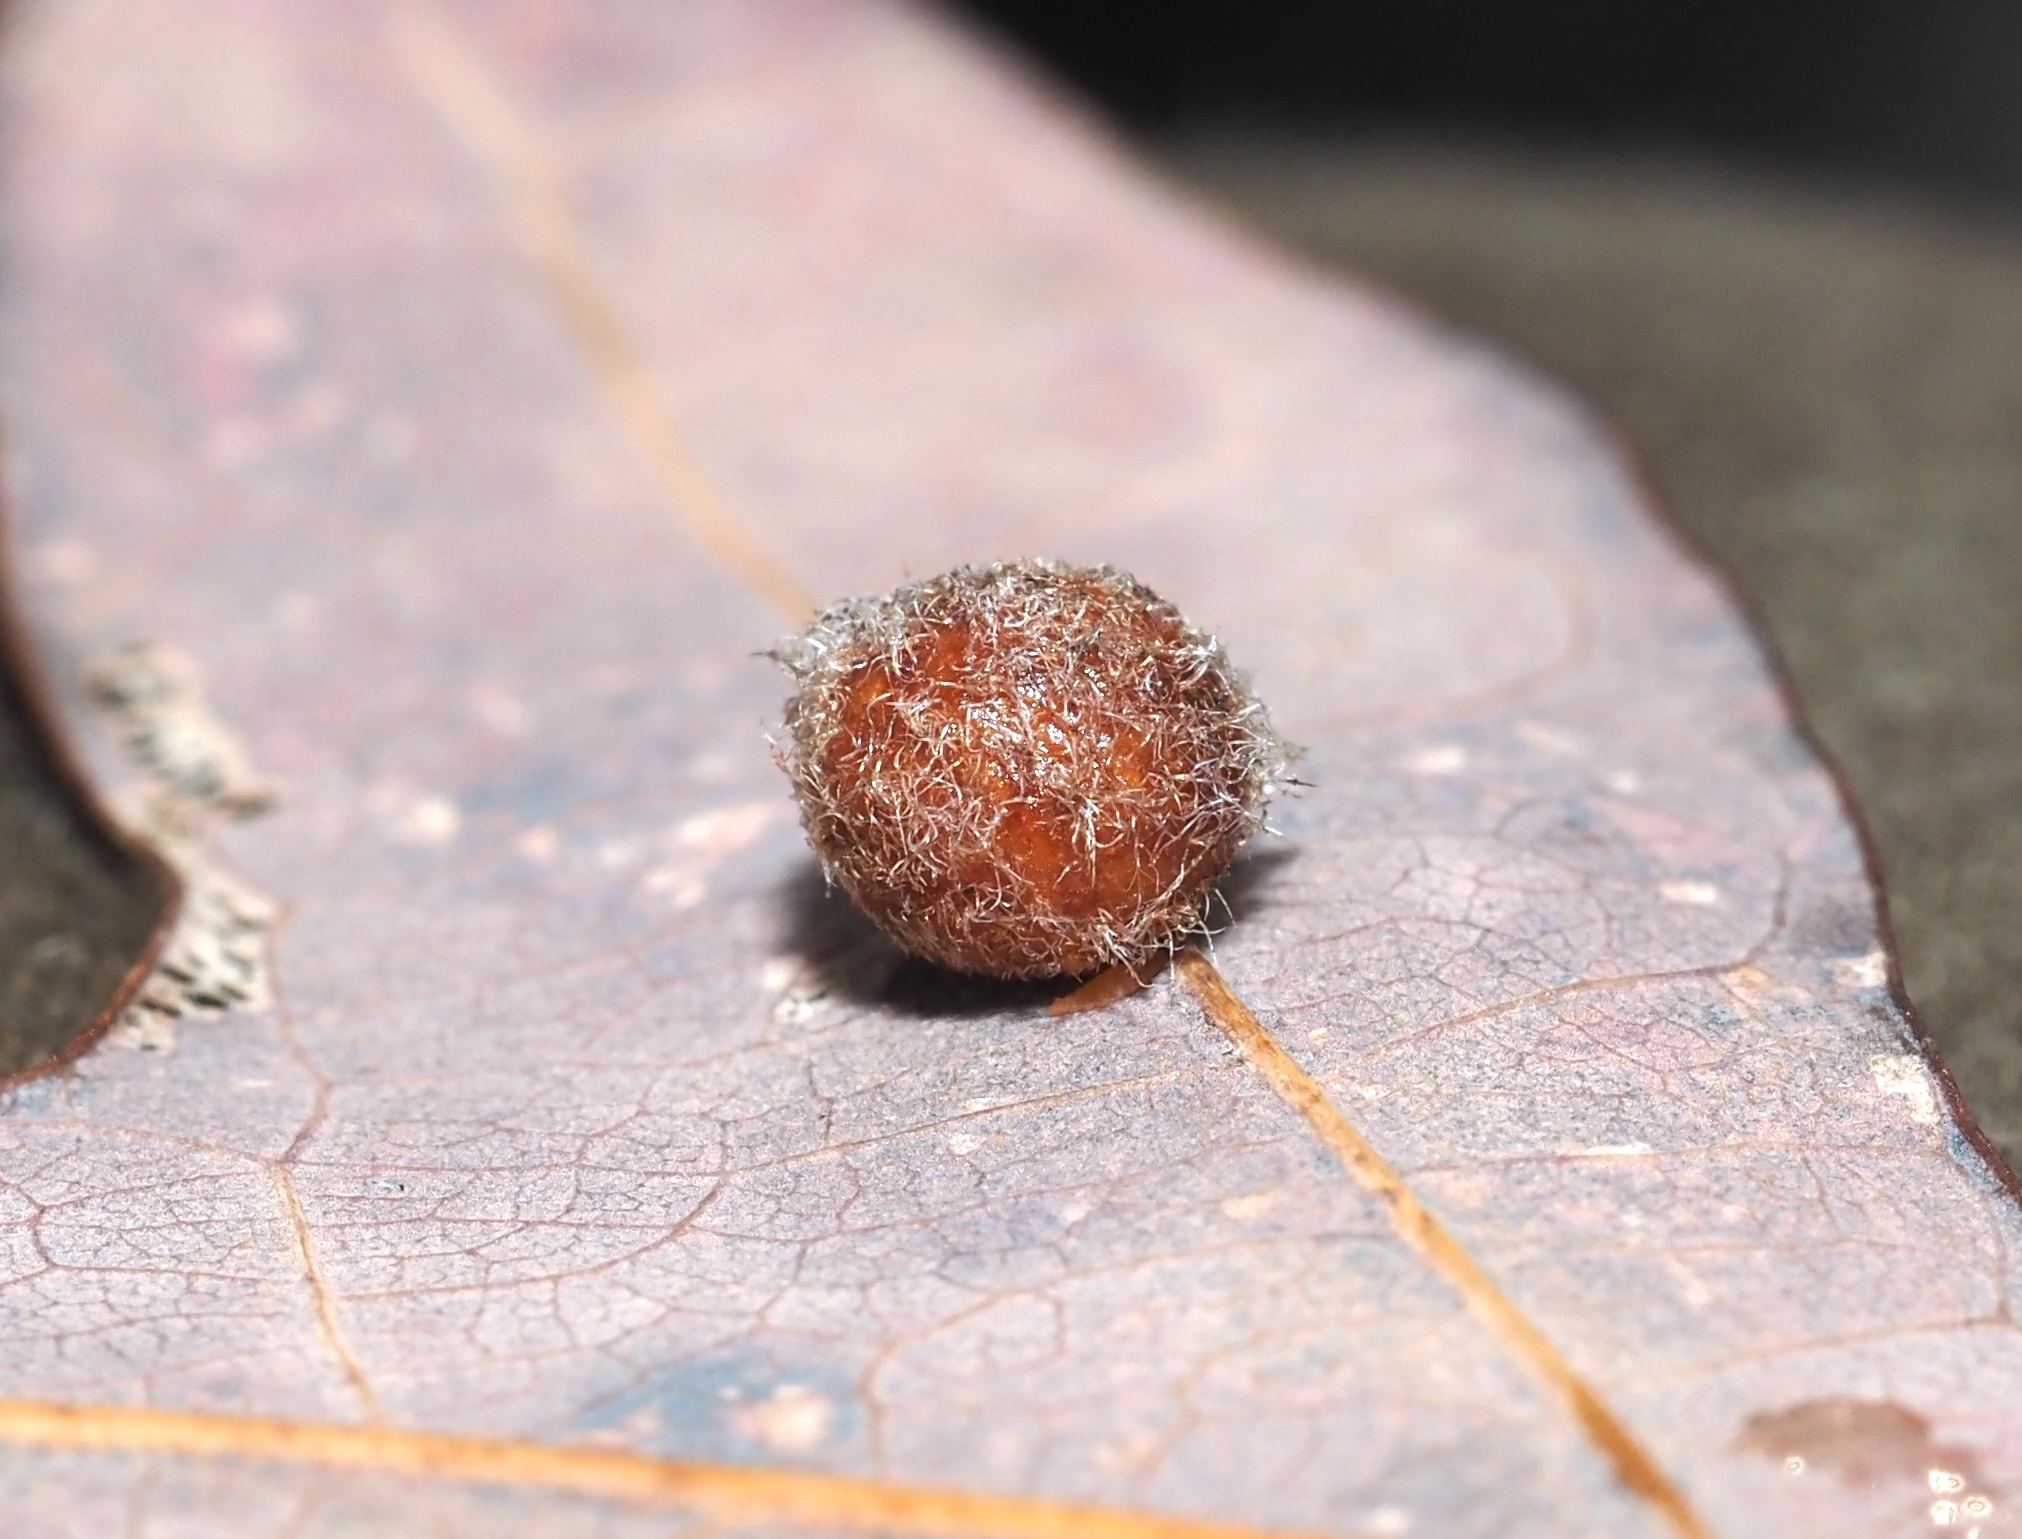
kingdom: Animalia
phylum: Arthropoda
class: Insecta
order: Hymenoptera
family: Cynipidae
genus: Philonix
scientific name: Philonix fulvicollis
